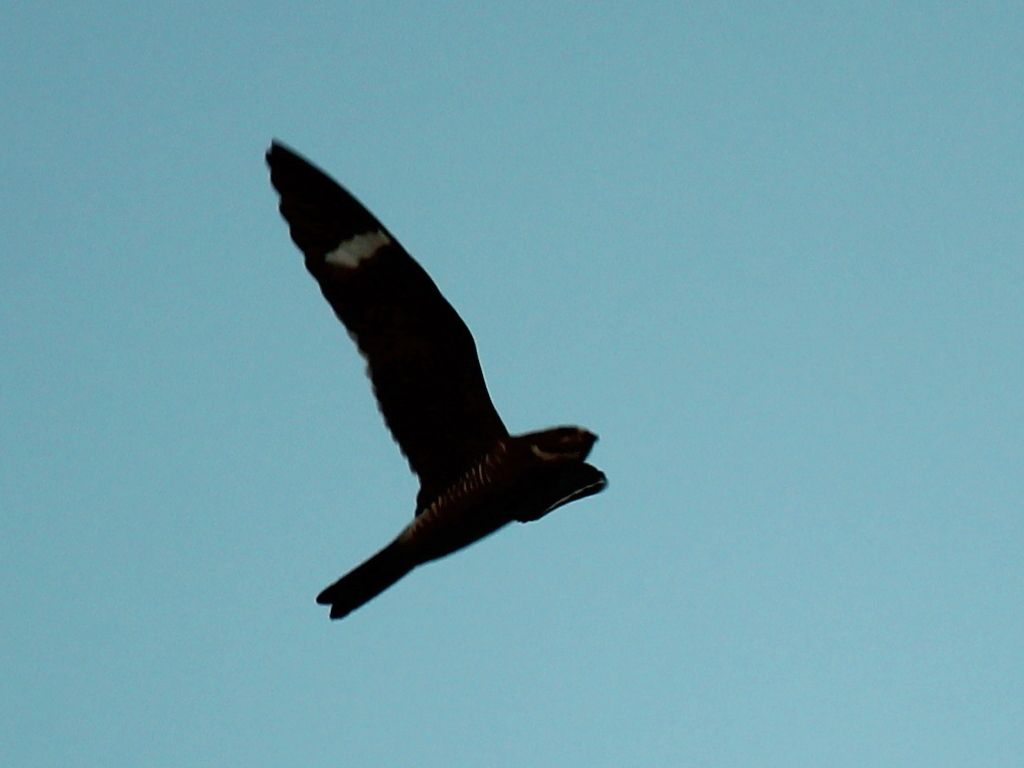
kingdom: Animalia
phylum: Chordata
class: Aves
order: Caprimulgiformes
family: Caprimulgidae
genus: Chordeiles
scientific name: Chordeiles minor
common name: Common nighthawk
